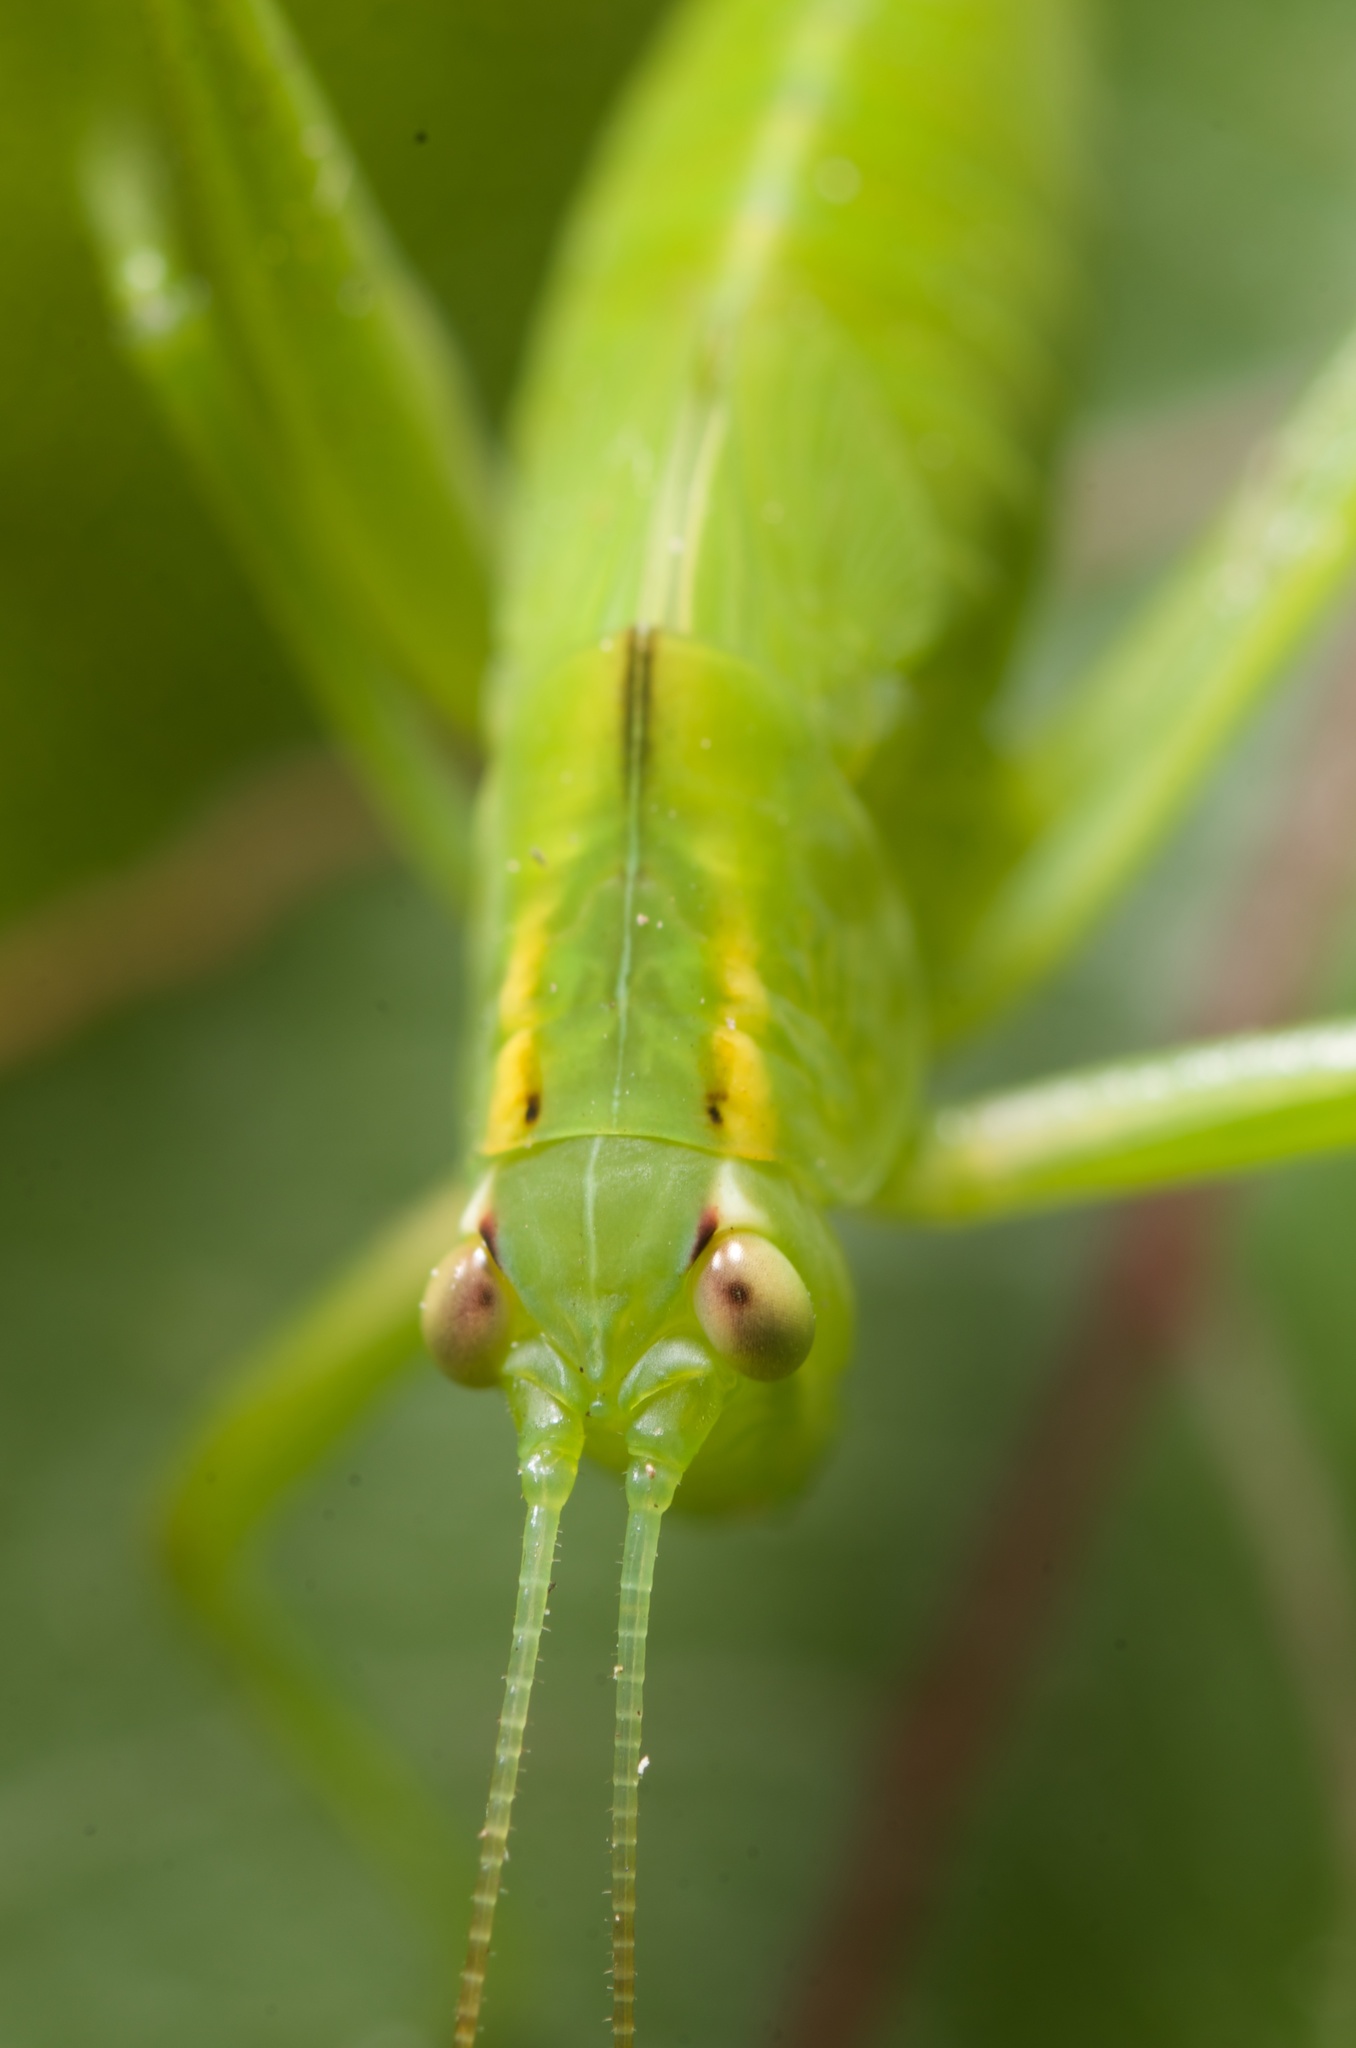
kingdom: Animalia
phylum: Arthropoda
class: Insecta
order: Orthoptera
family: Tettigoniidae
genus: Caedicia
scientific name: Caedicia simplex
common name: Common garden katydid
